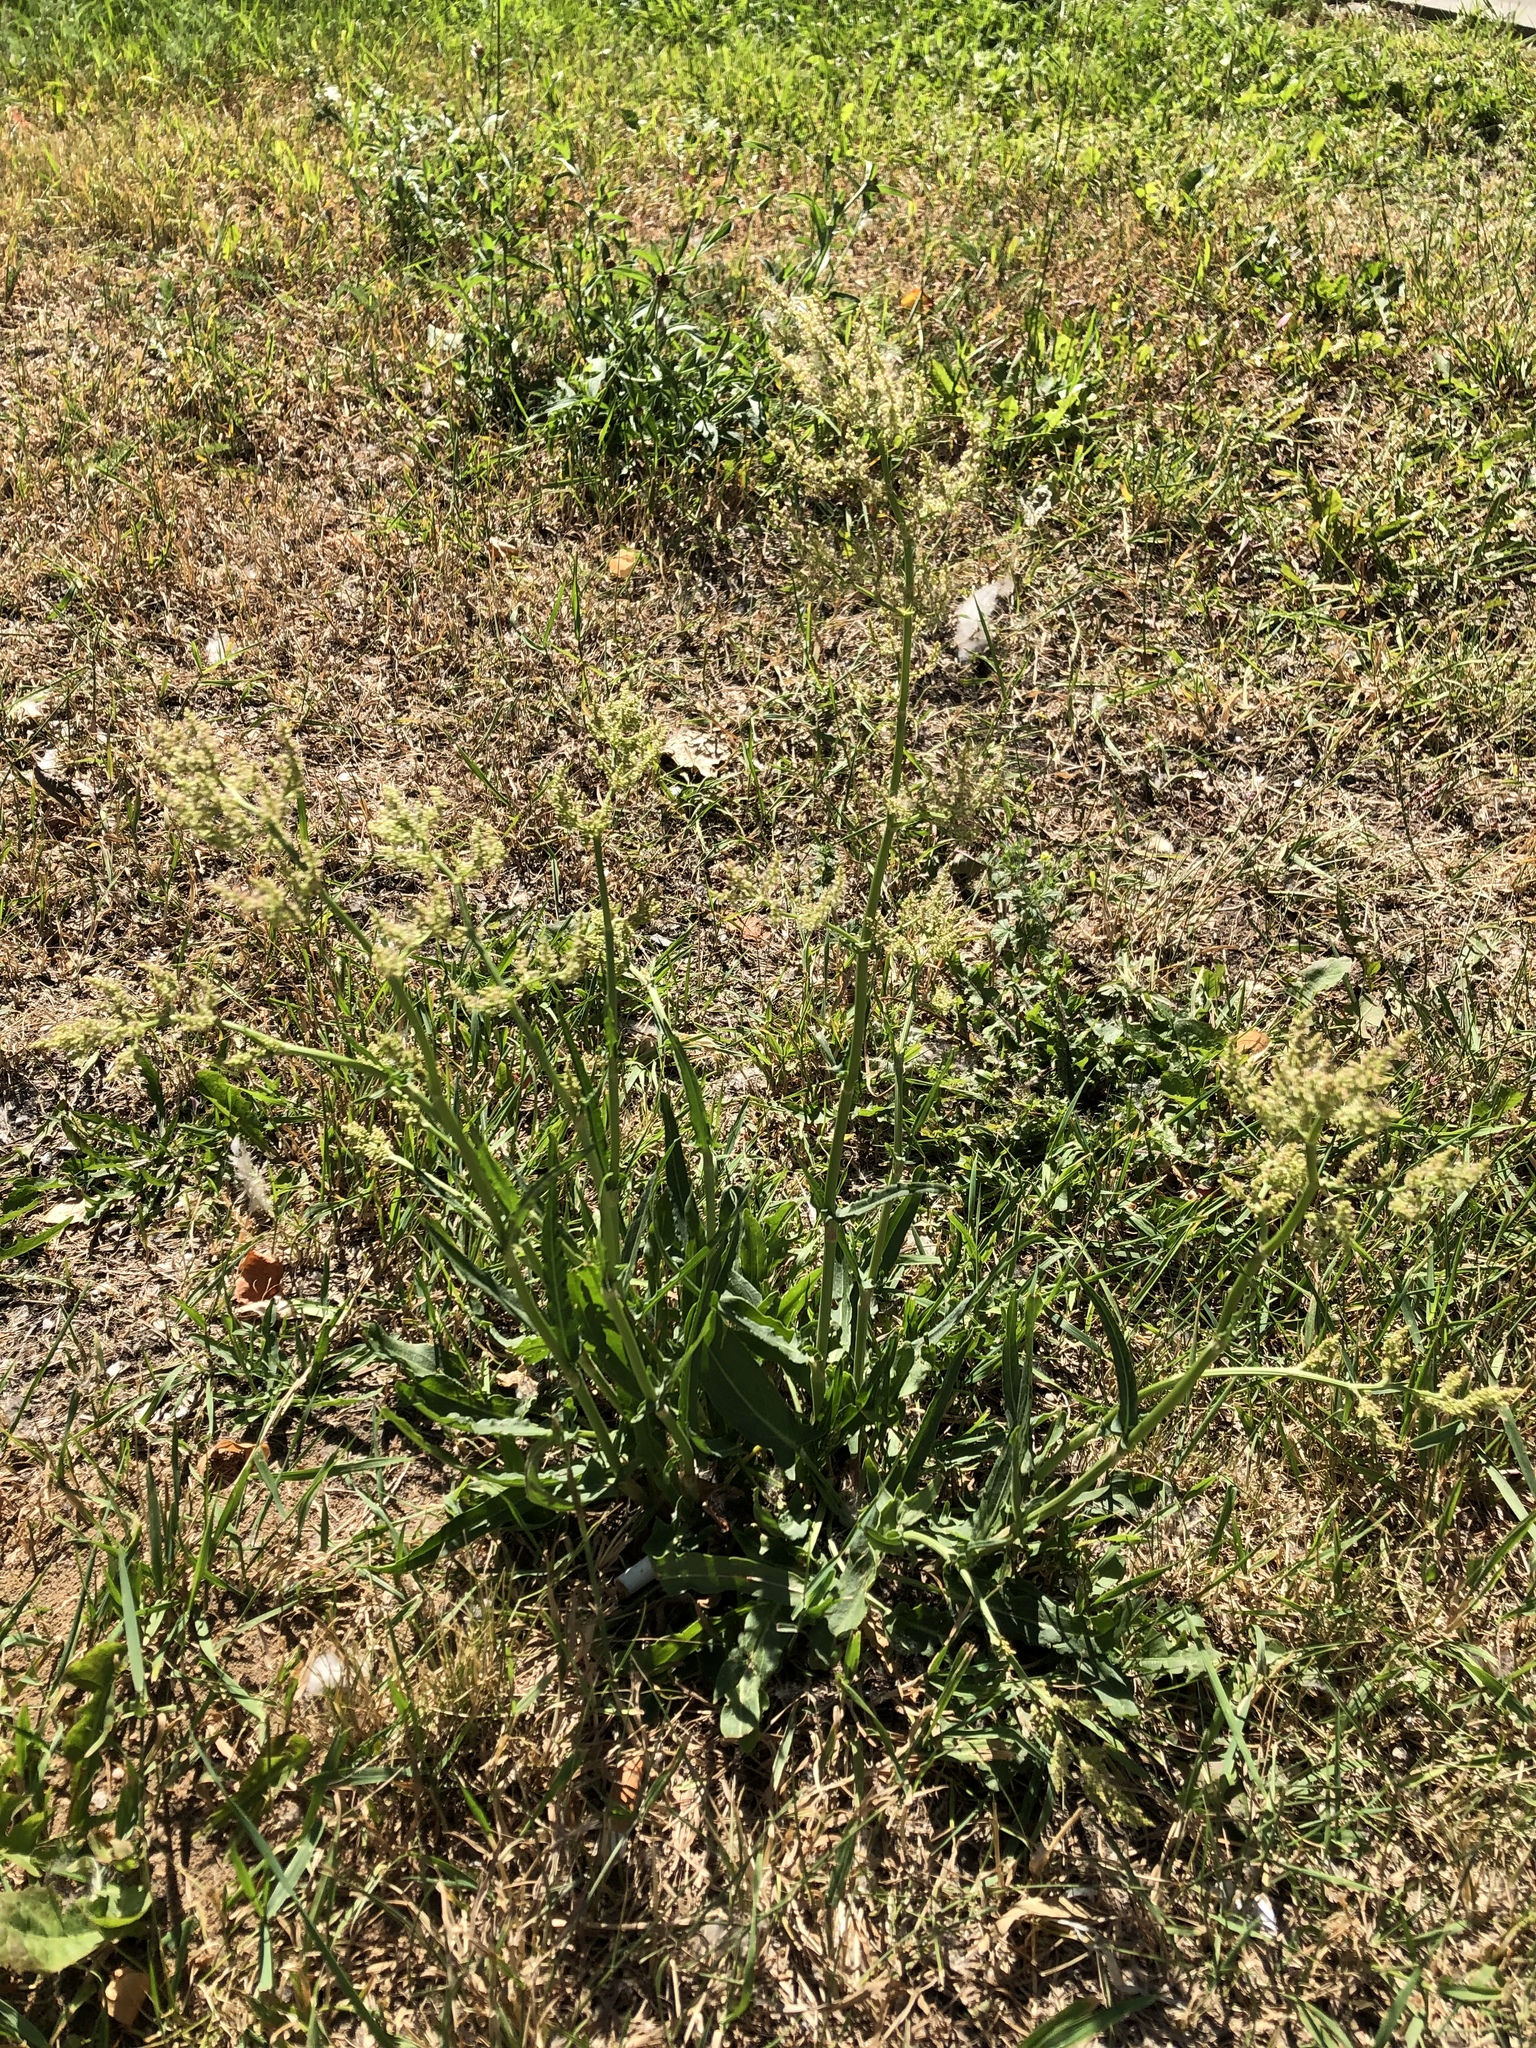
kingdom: Plantae
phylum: Tracheophyta
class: Magnoliopsida
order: Caryophyllales
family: Polygonaceae
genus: Rumex
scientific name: Rumex thyrsiflorus
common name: Garden sorrel
